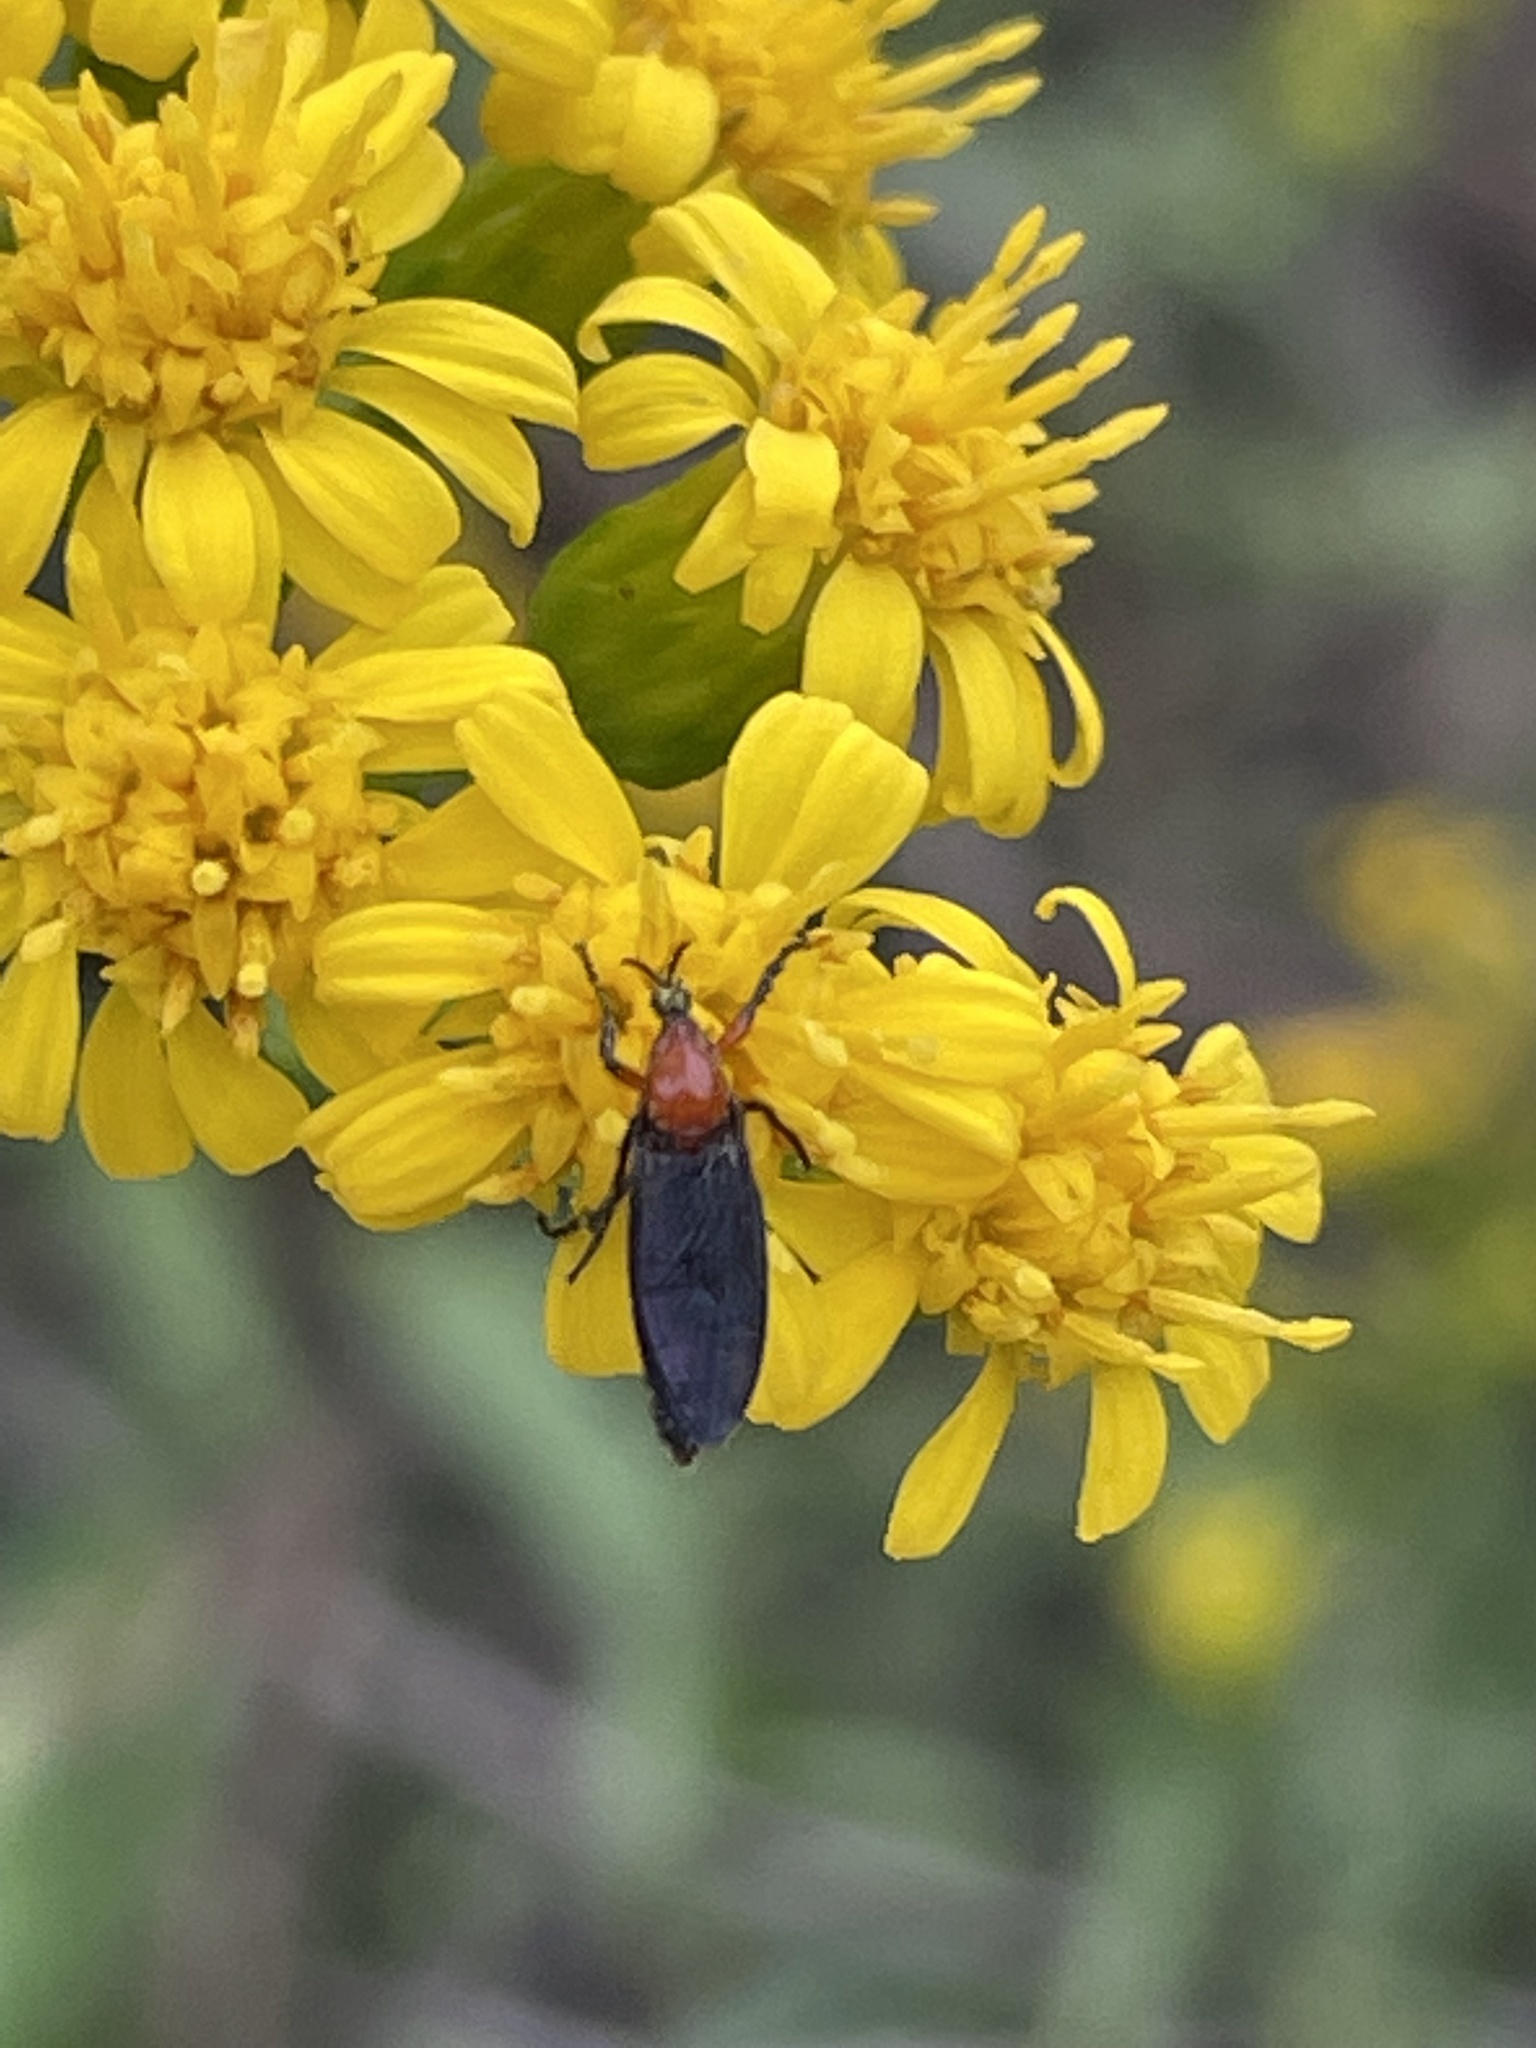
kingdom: Animalia
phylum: Arthropoda
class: Insecta
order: Diptera
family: Bibionidae
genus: Dilophus
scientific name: Dilophus spinipes
